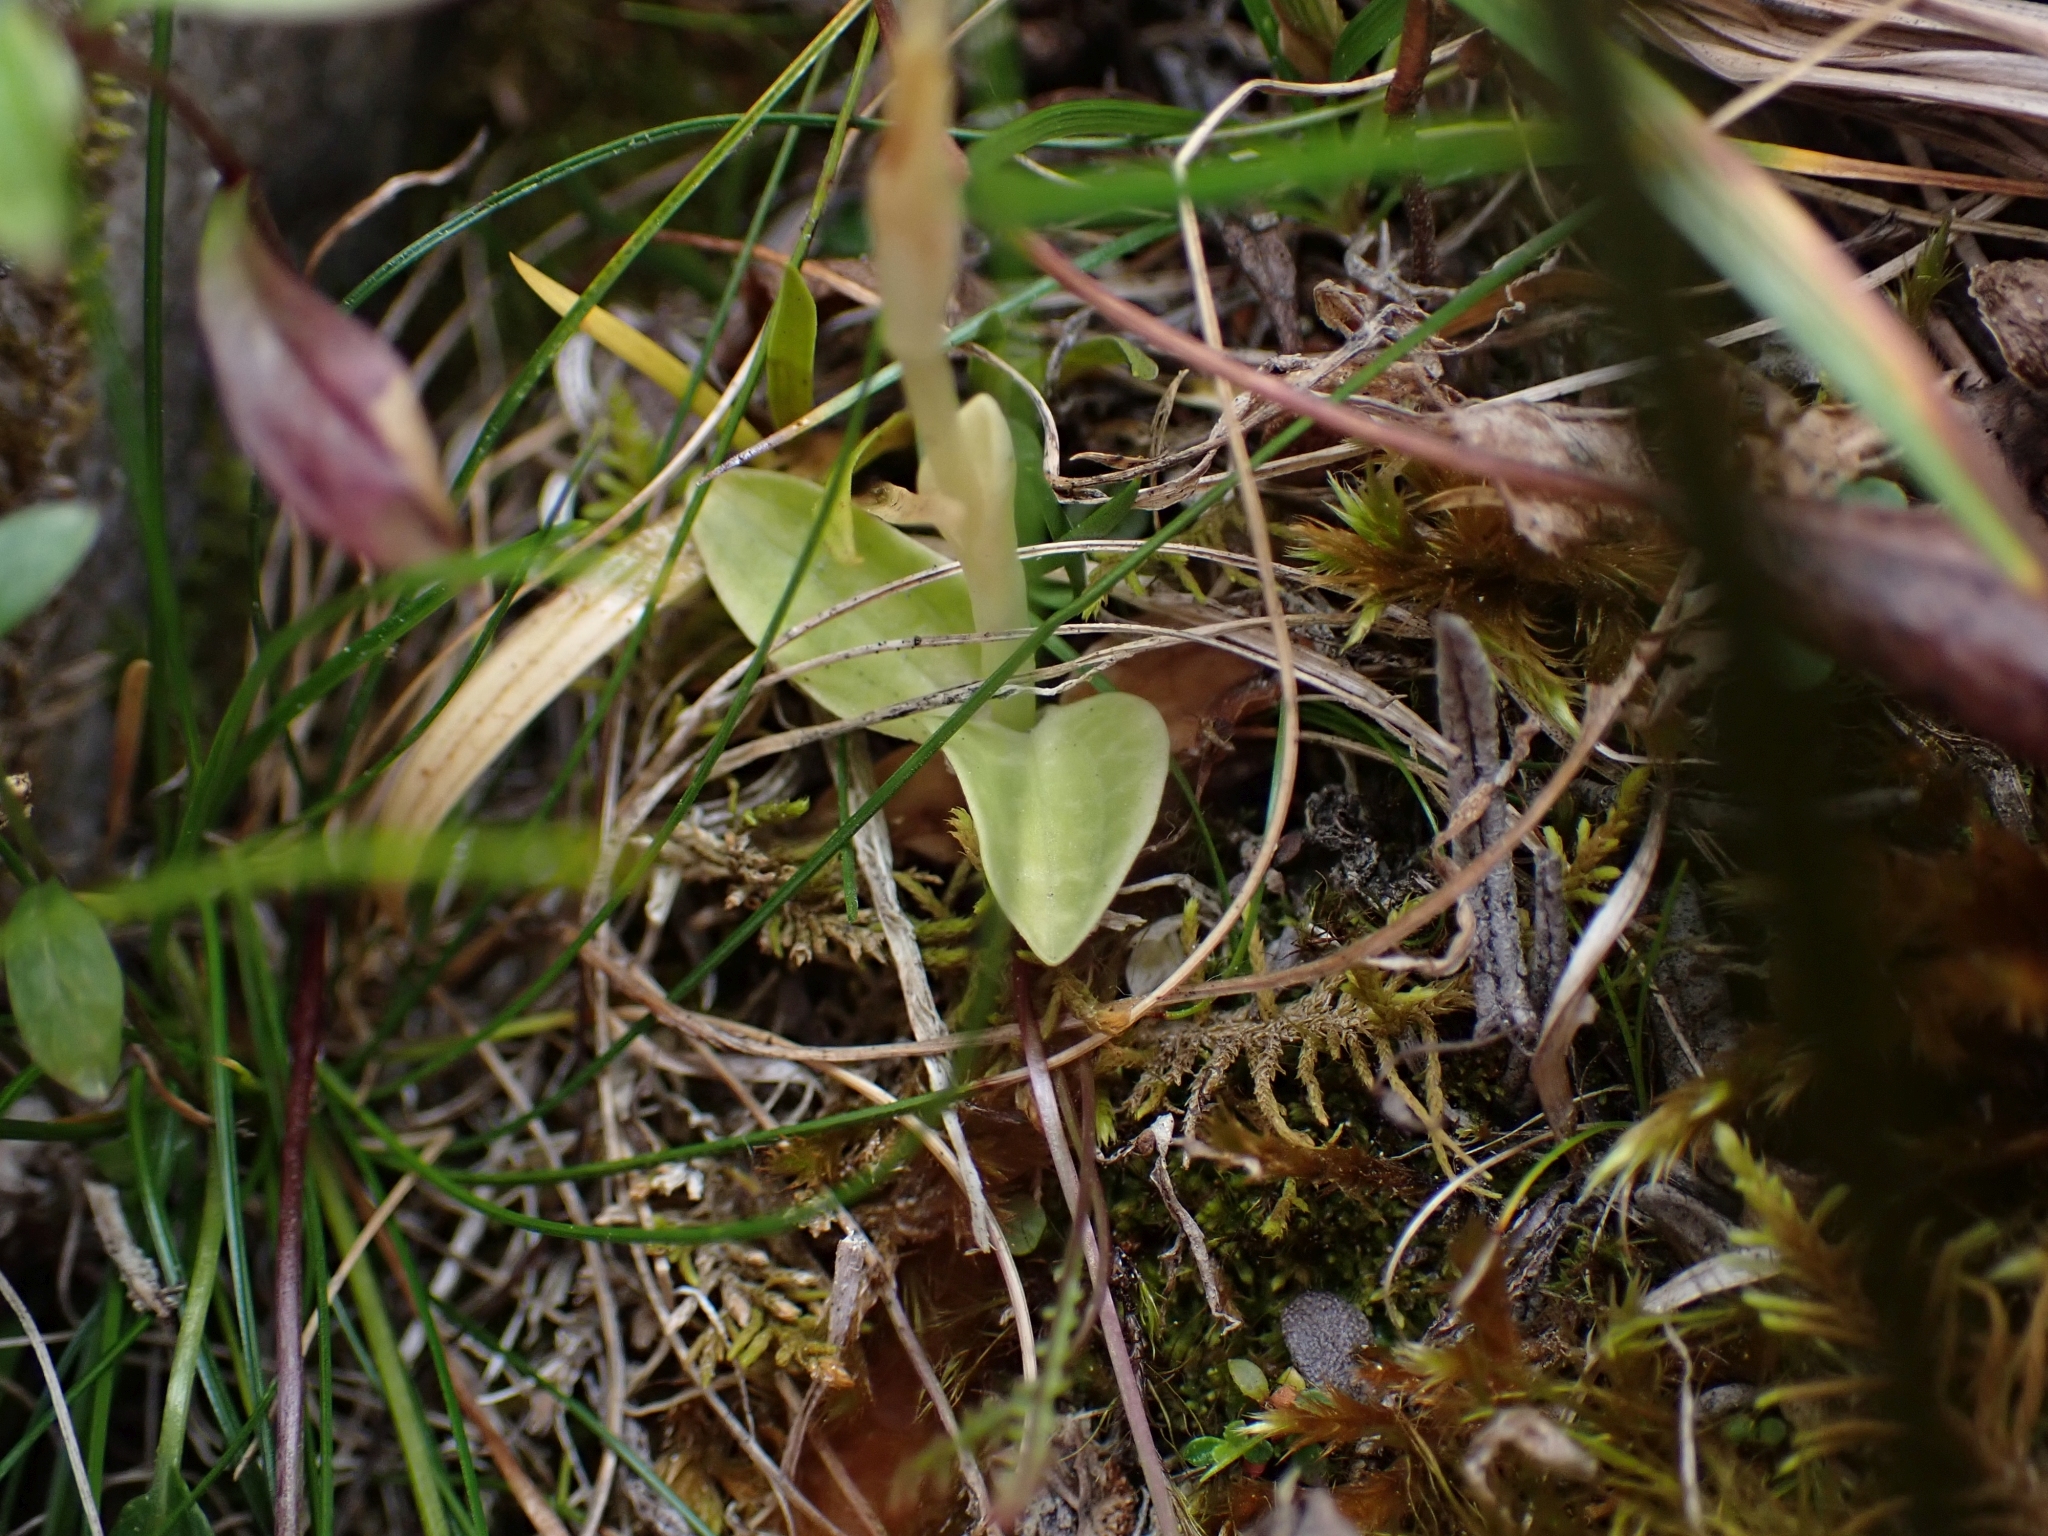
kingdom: Plantae
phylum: Tracheophyta
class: Liliopsida
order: Asparagales
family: Orchidaceae
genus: Goodyera
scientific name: Goodyera repens
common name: Creeping lady's-tresses
